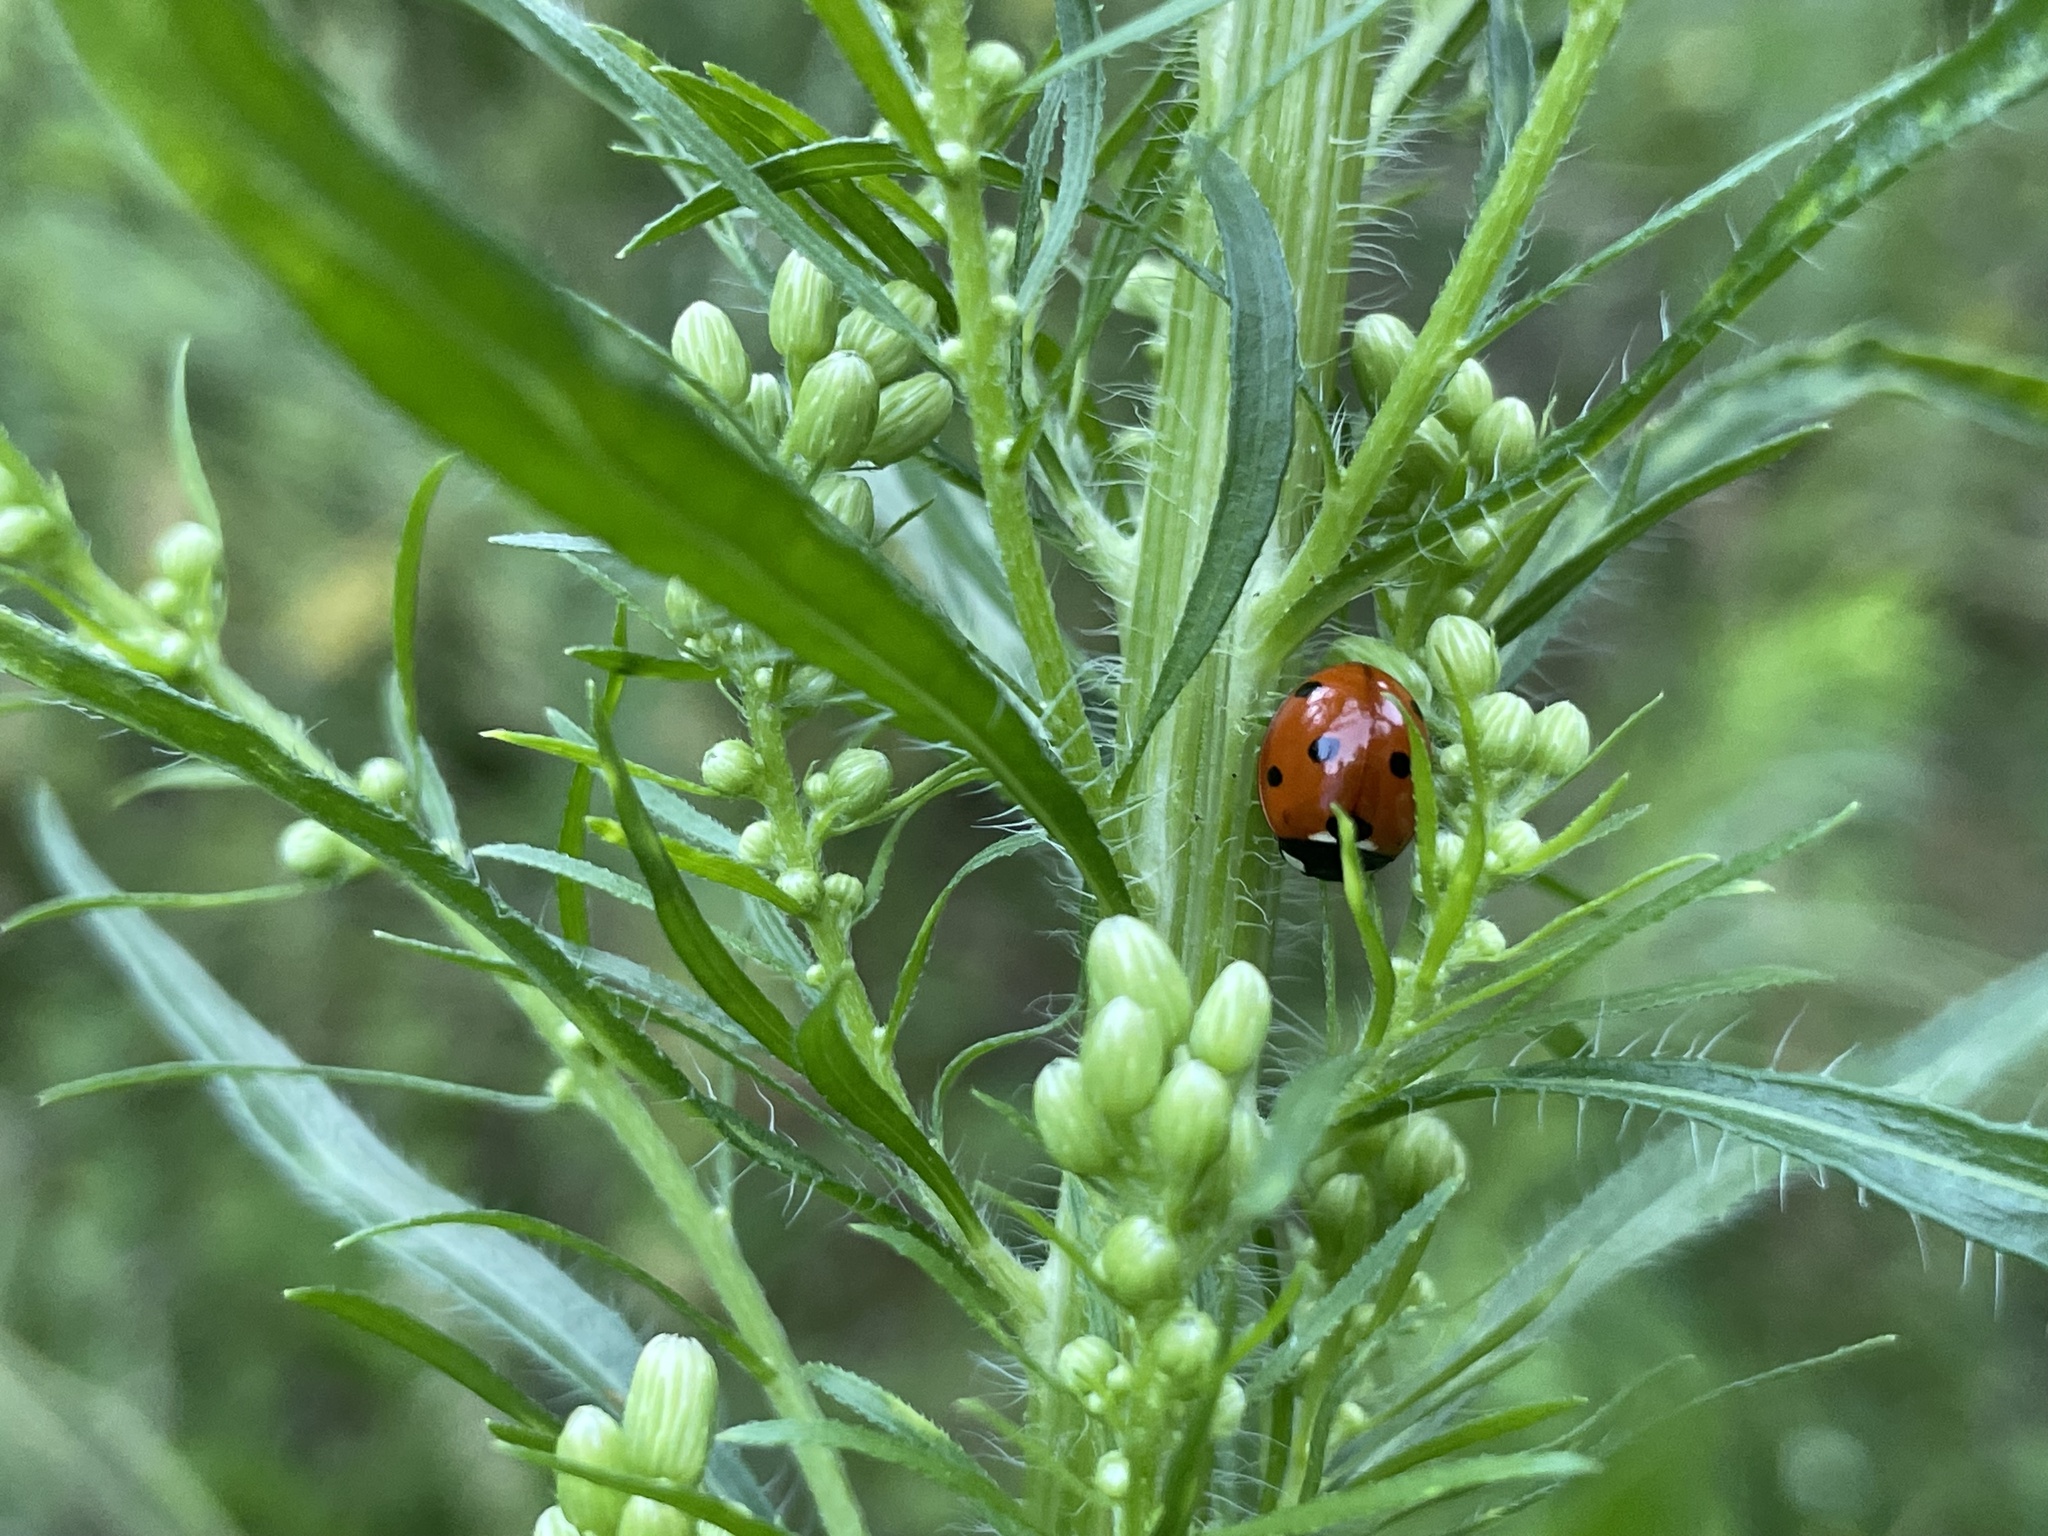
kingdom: Animalia
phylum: Arthropoda
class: Insecta
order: Coleoptera
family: Coccinellidae
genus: Coccinella
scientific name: Coccinella septempunctata
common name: Sevenspotted lady beetle
